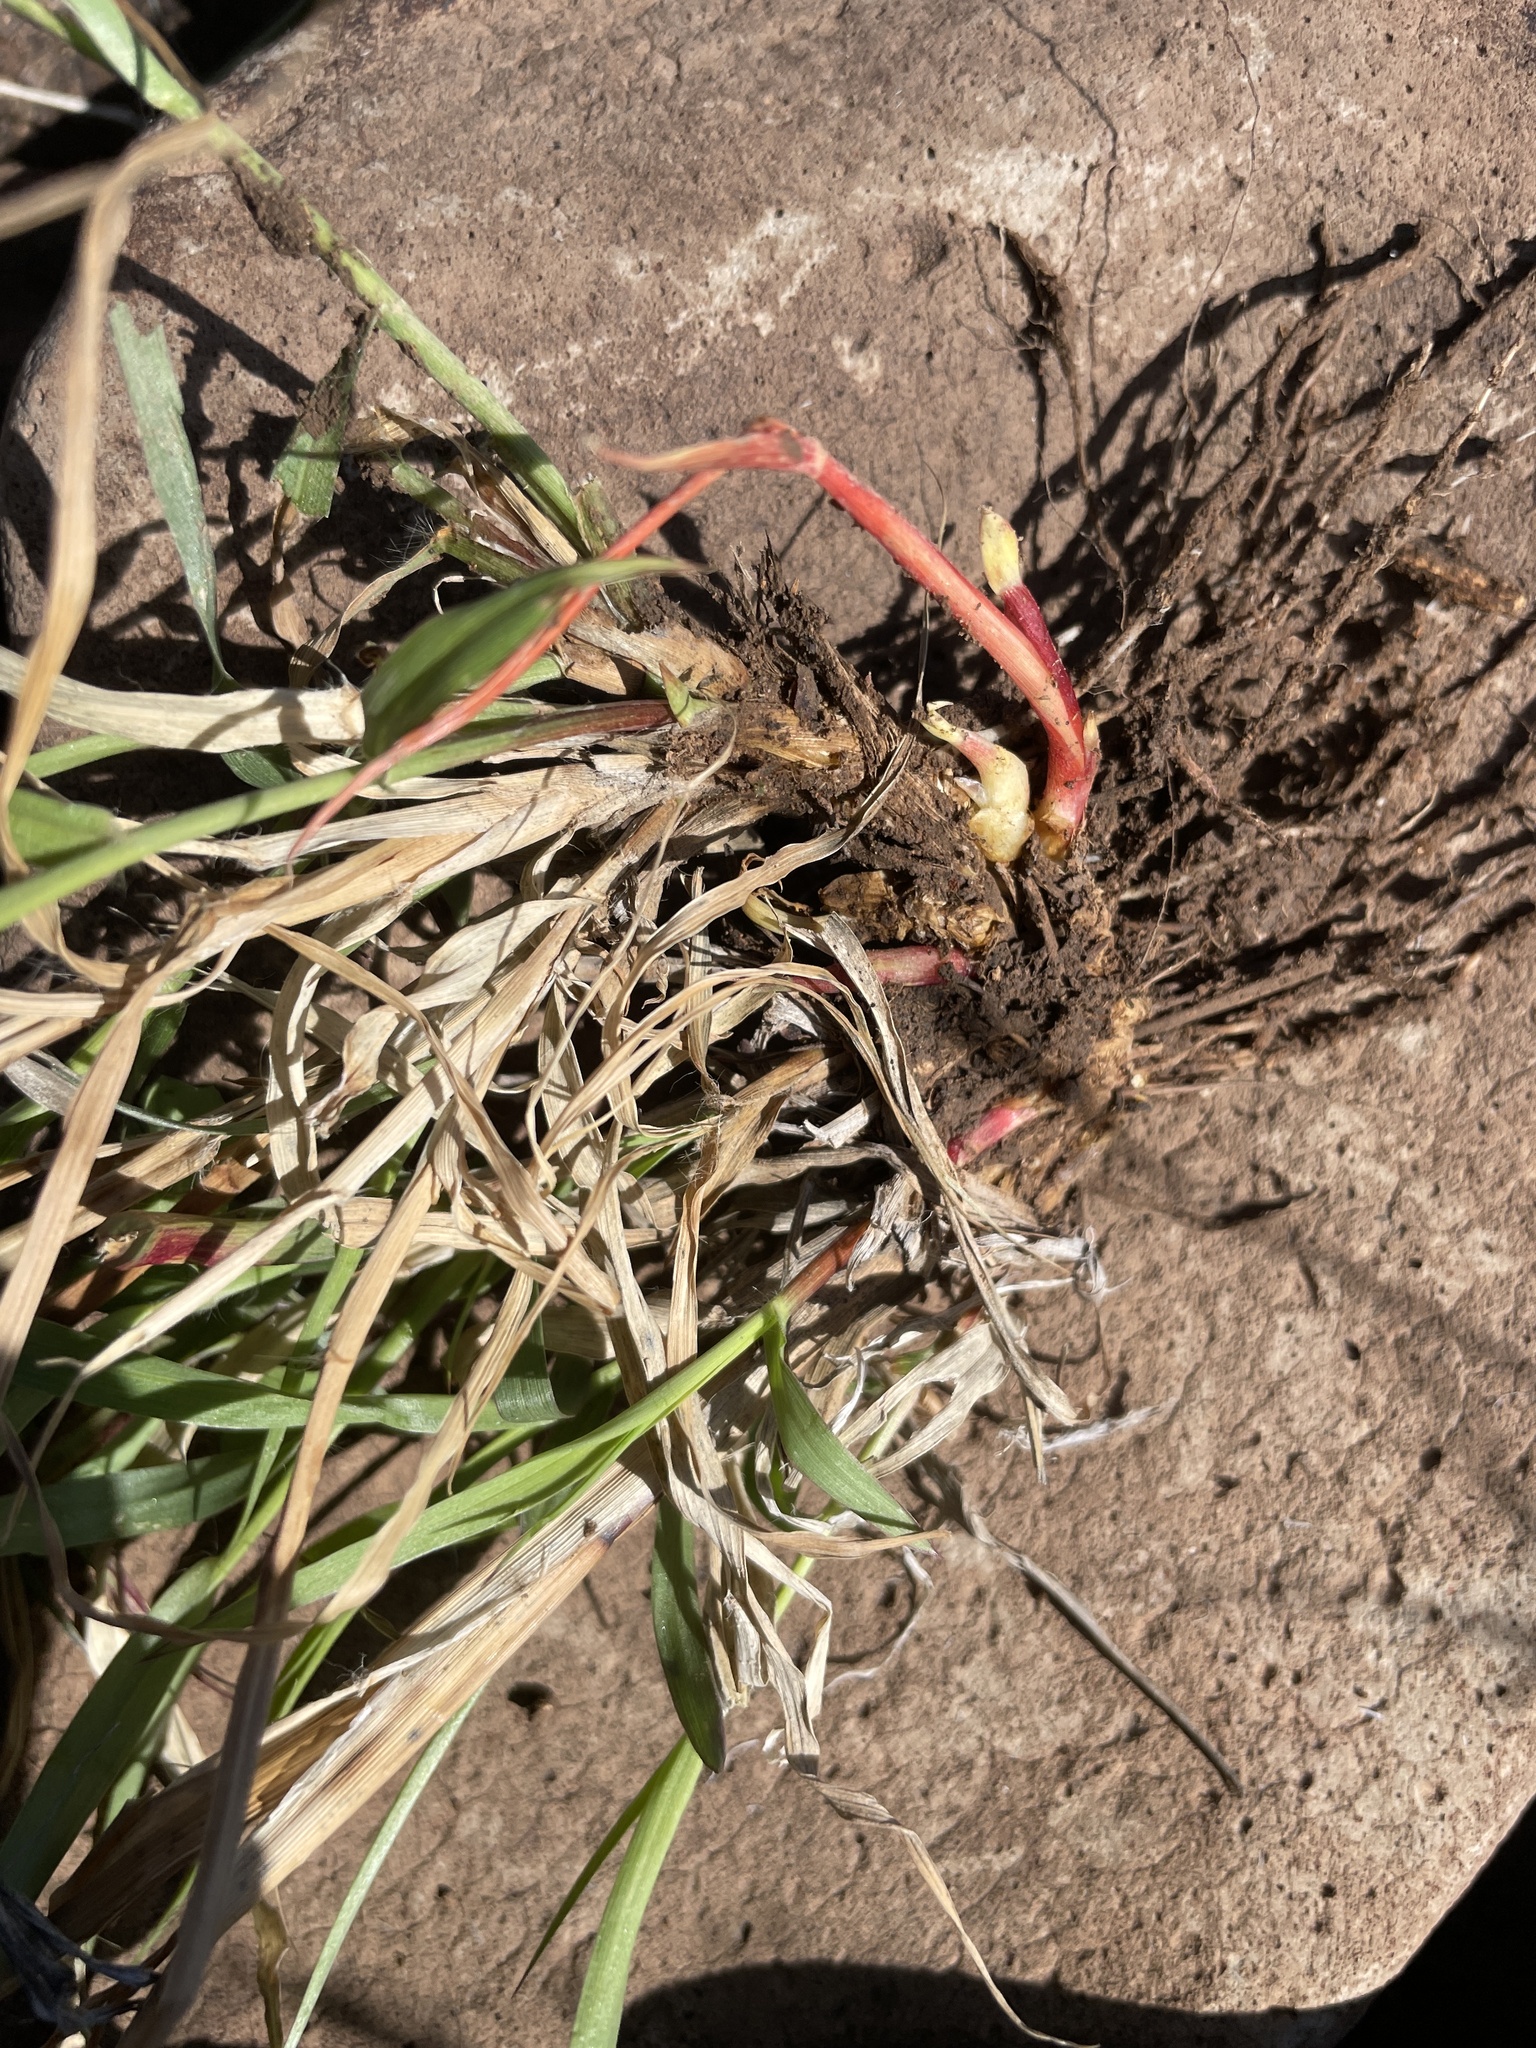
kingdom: Plantae
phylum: Tracheophyta
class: Liliopsida
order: Poales
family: Poaceae
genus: Cenchrus
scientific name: Cenchrus ciliaris
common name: Buffelgrass
